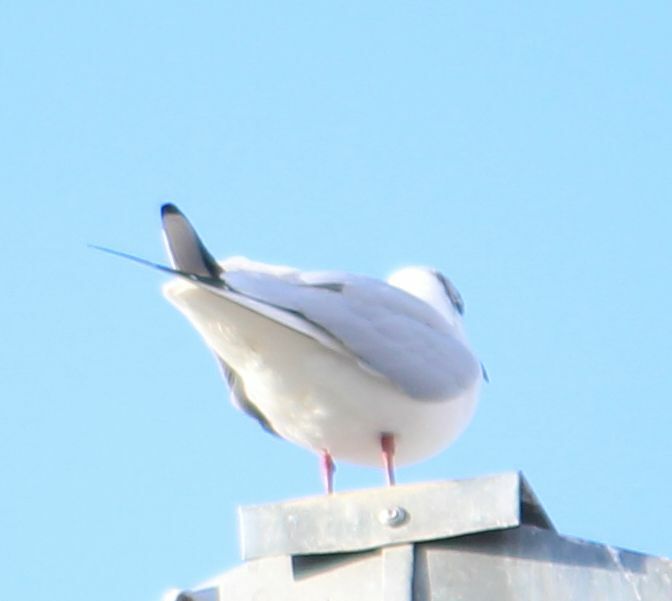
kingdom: Animalia
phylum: Chordata
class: Aves
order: Charadriiformes
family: Laridae
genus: Chroicocephalus
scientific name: Chroicocephalus ridibundus
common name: Black-headed gull
